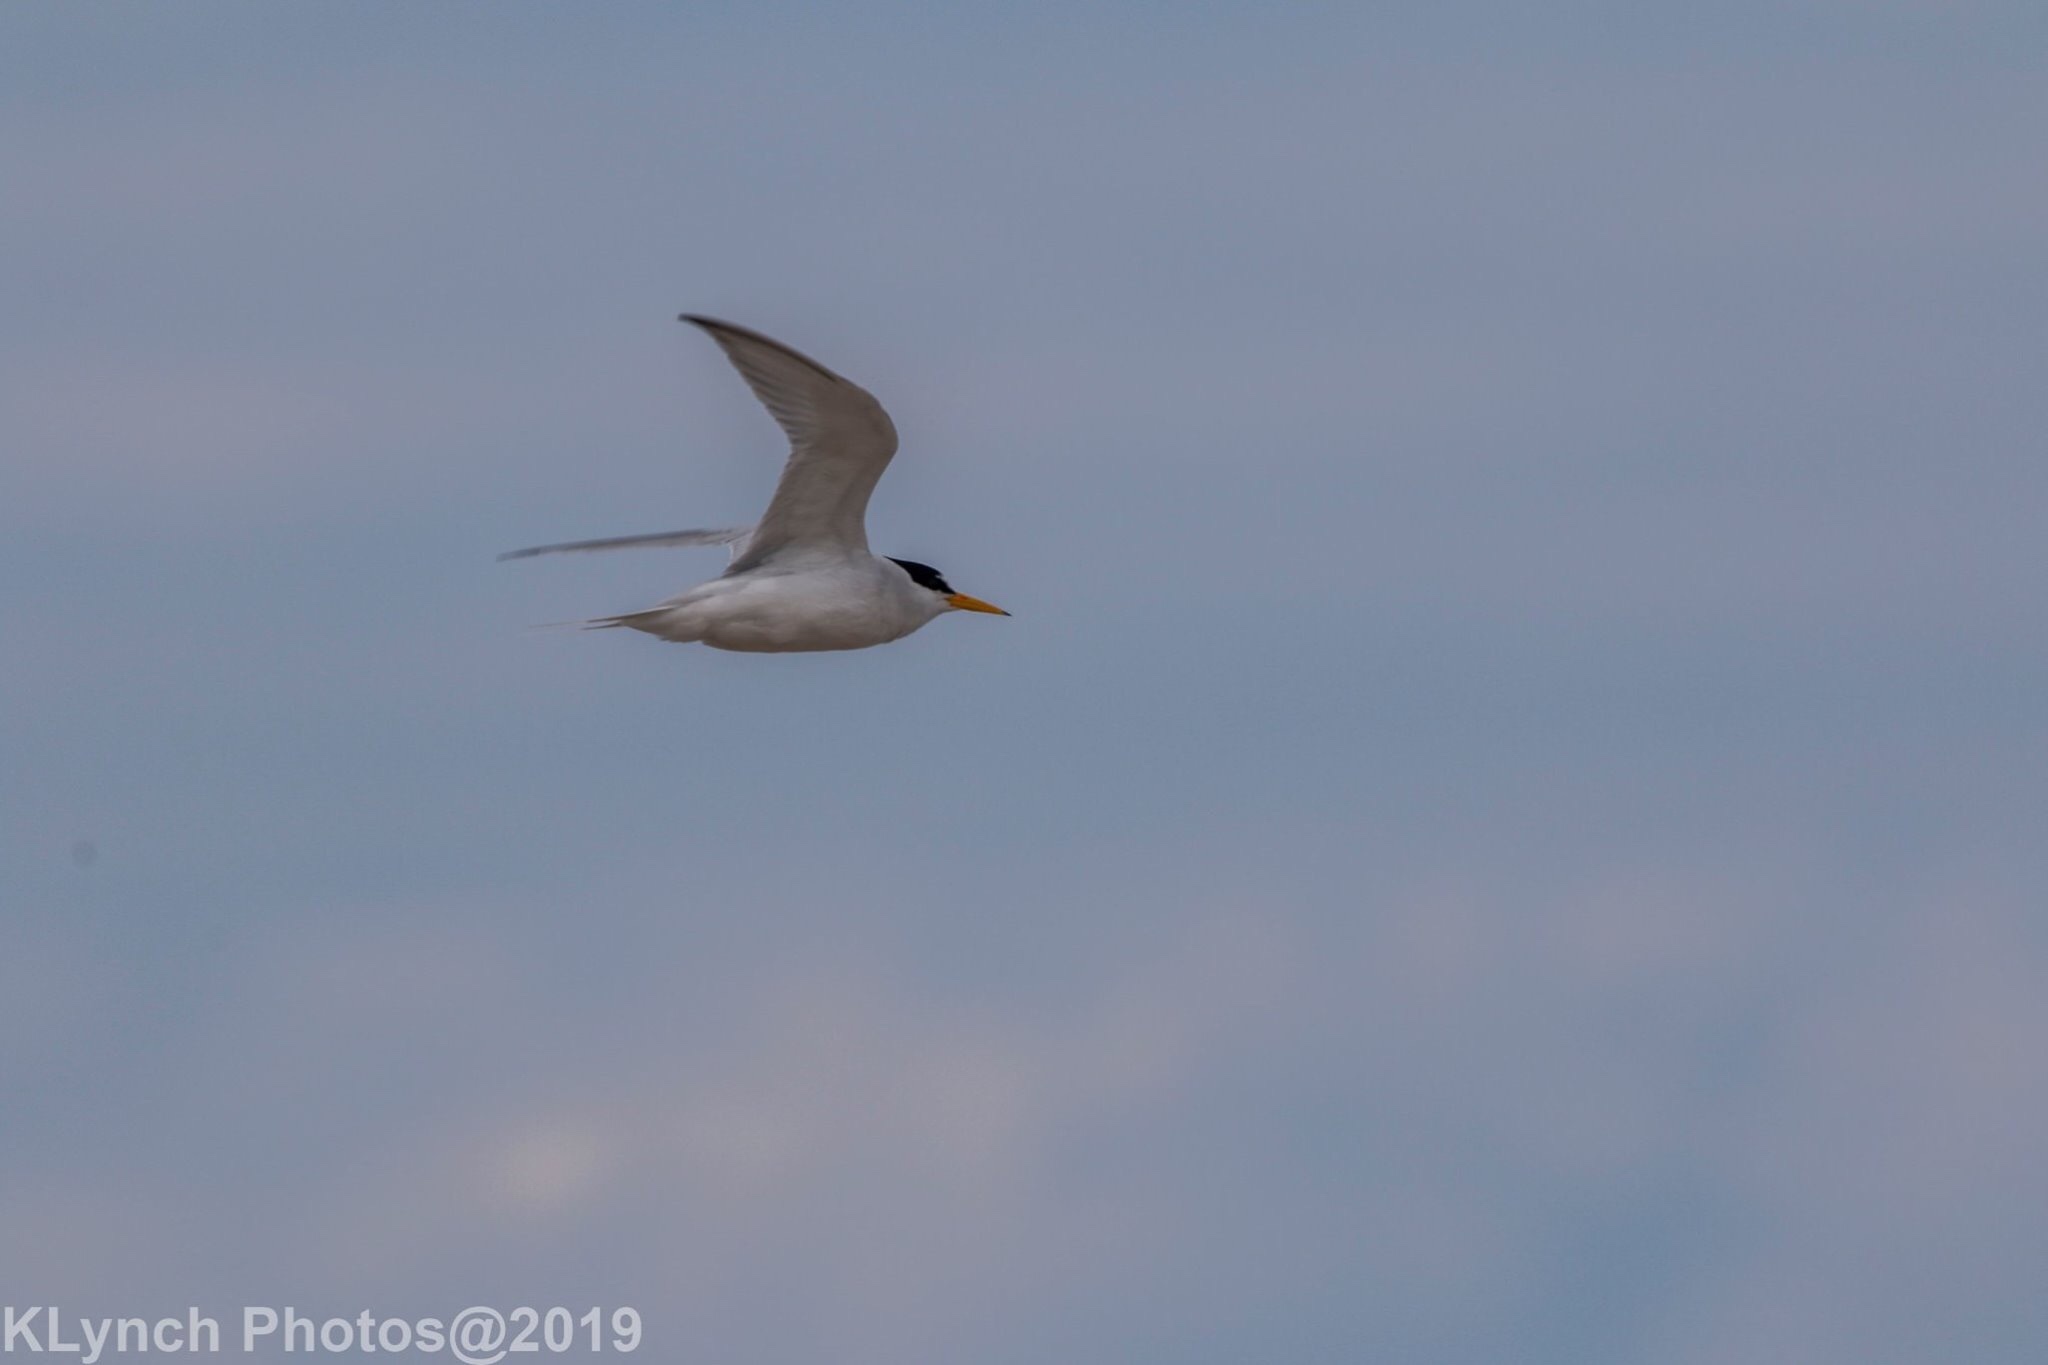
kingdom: Animalia
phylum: Chordata
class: Aves
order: Charadriiformes
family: Laridae
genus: Sternula
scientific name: Sternula antillarum
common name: Least tern
